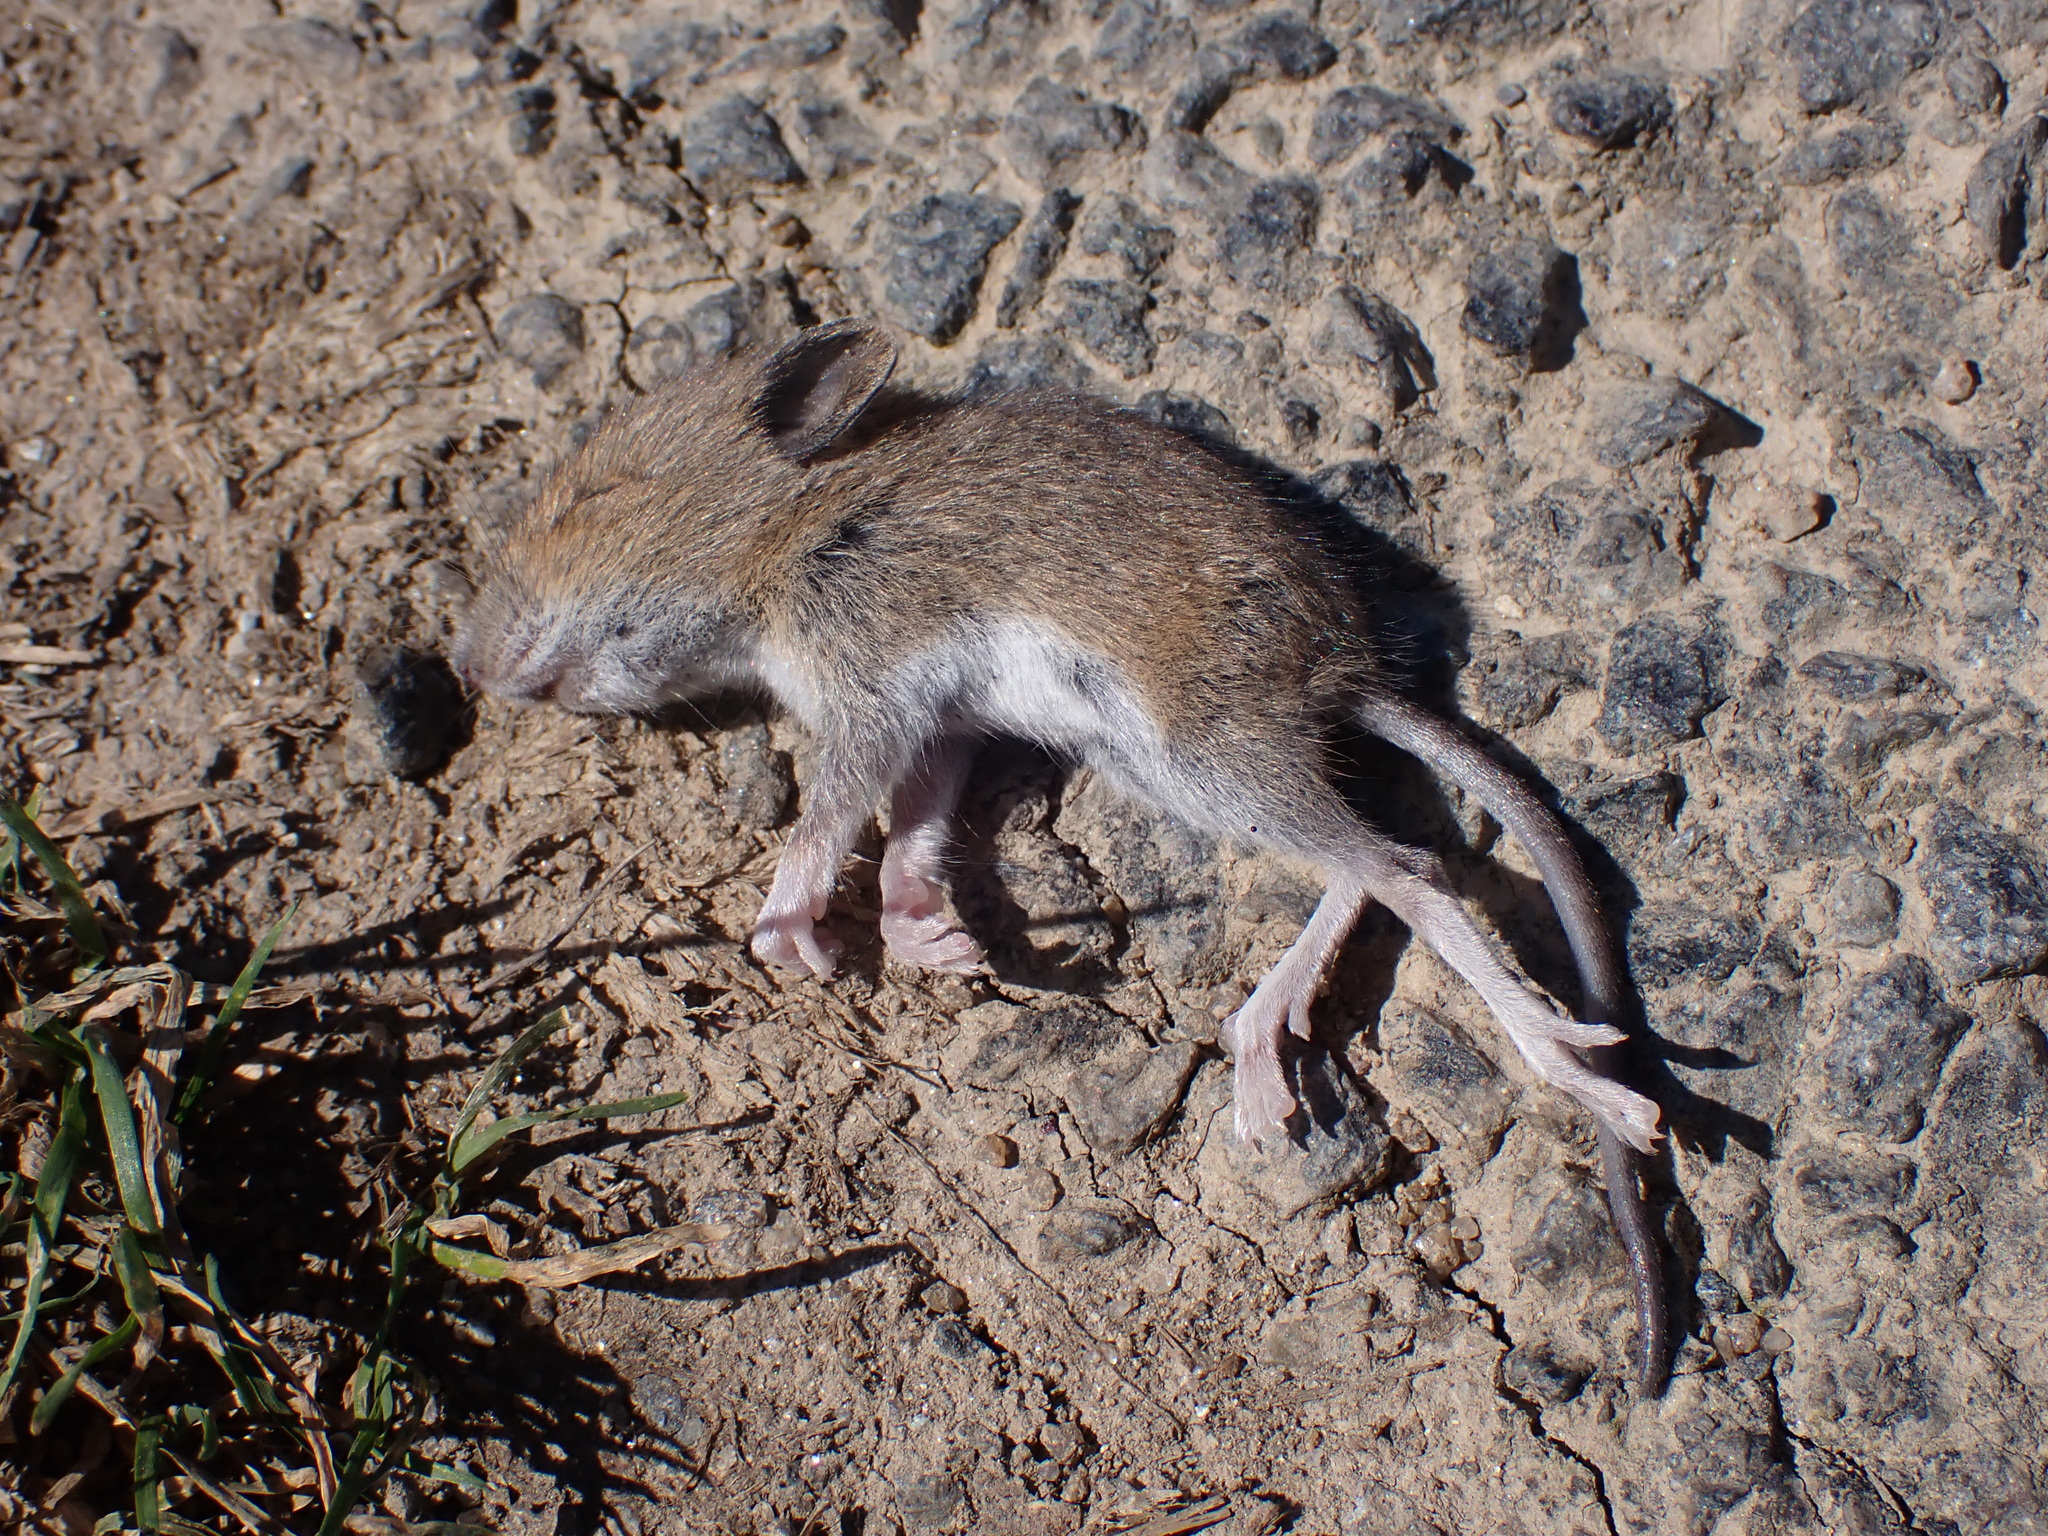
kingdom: Animalia
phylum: Chordata
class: Mammalia
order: Rodentia
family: Muridae
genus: Apodemus
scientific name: Apodemus sylvaticus
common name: Wood mouse
